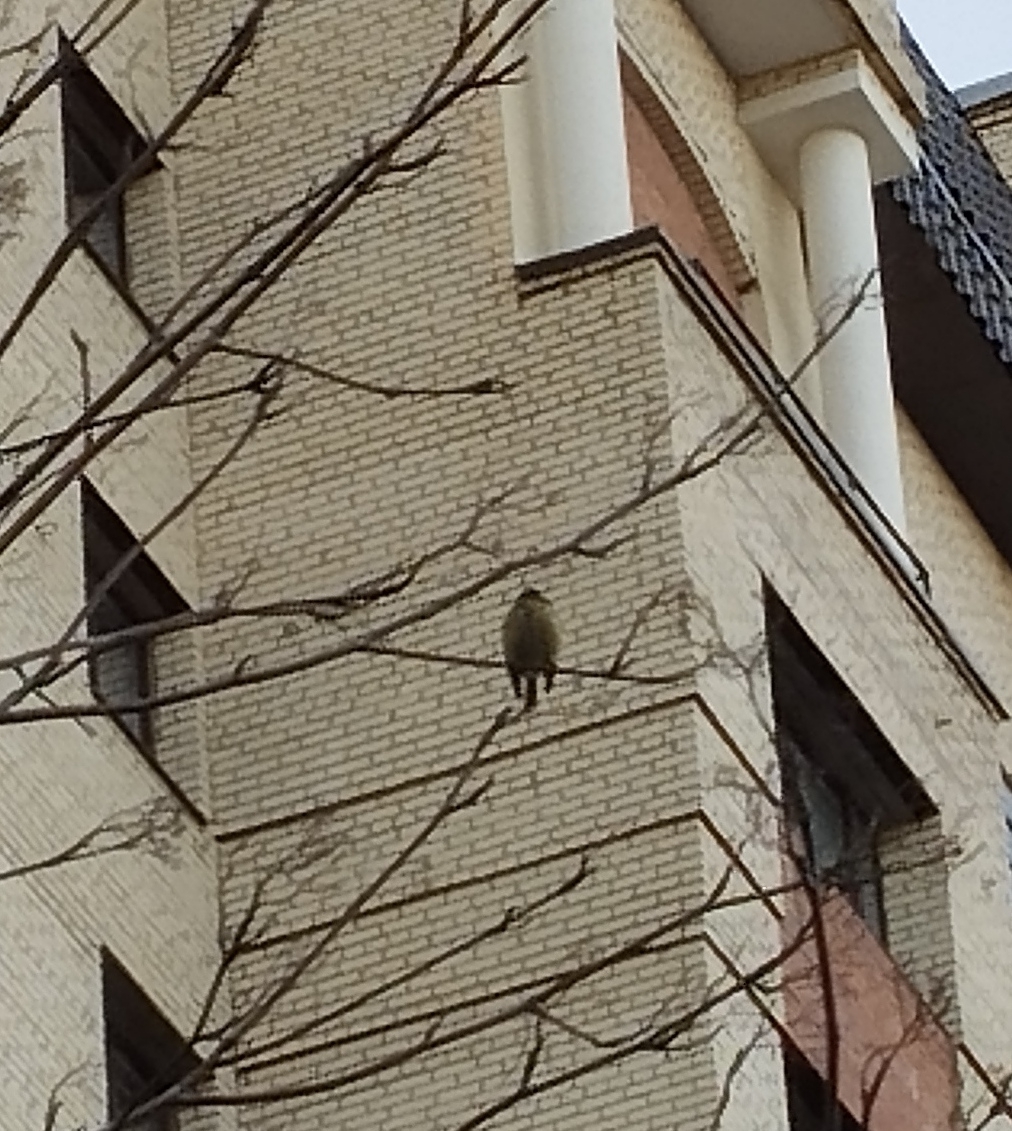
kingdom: Animalia
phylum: Chordata
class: Aves
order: Passeriformes
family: Paridae
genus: Cyanistes
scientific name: Cyanistes caeruleus
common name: Eurasian blue tit
